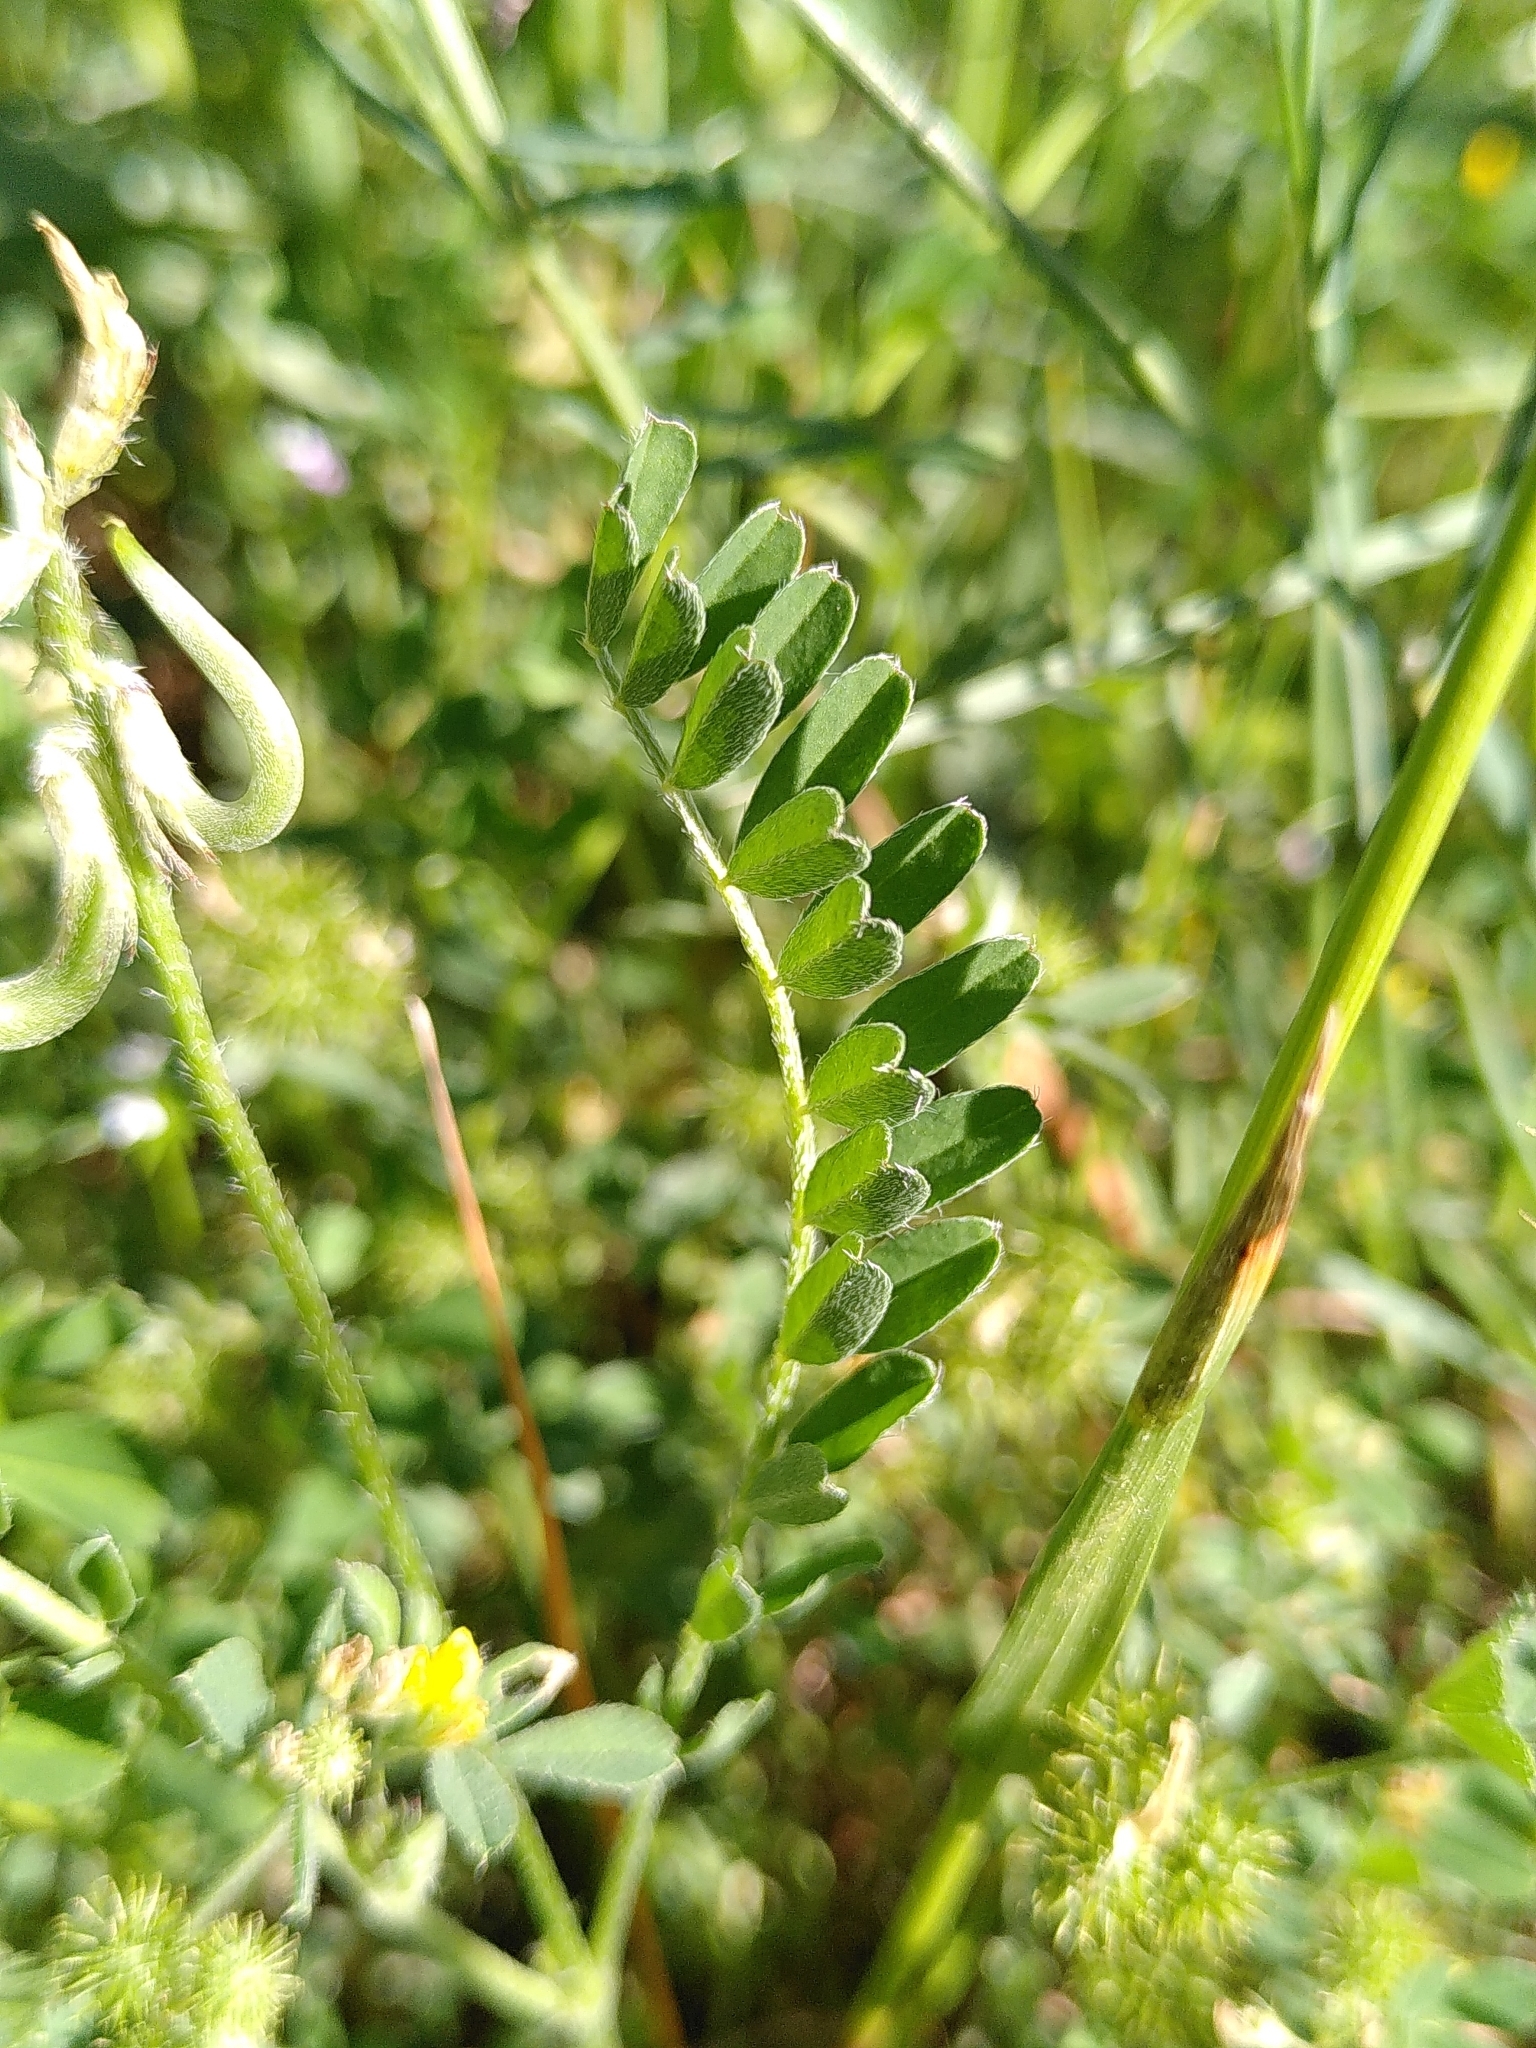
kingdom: Plantae
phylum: Tracheophyta
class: Magnoliopsida
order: Fabales
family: Fabaceae
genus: Astragalus
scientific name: Astragalus hamosus
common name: European milkvetch
